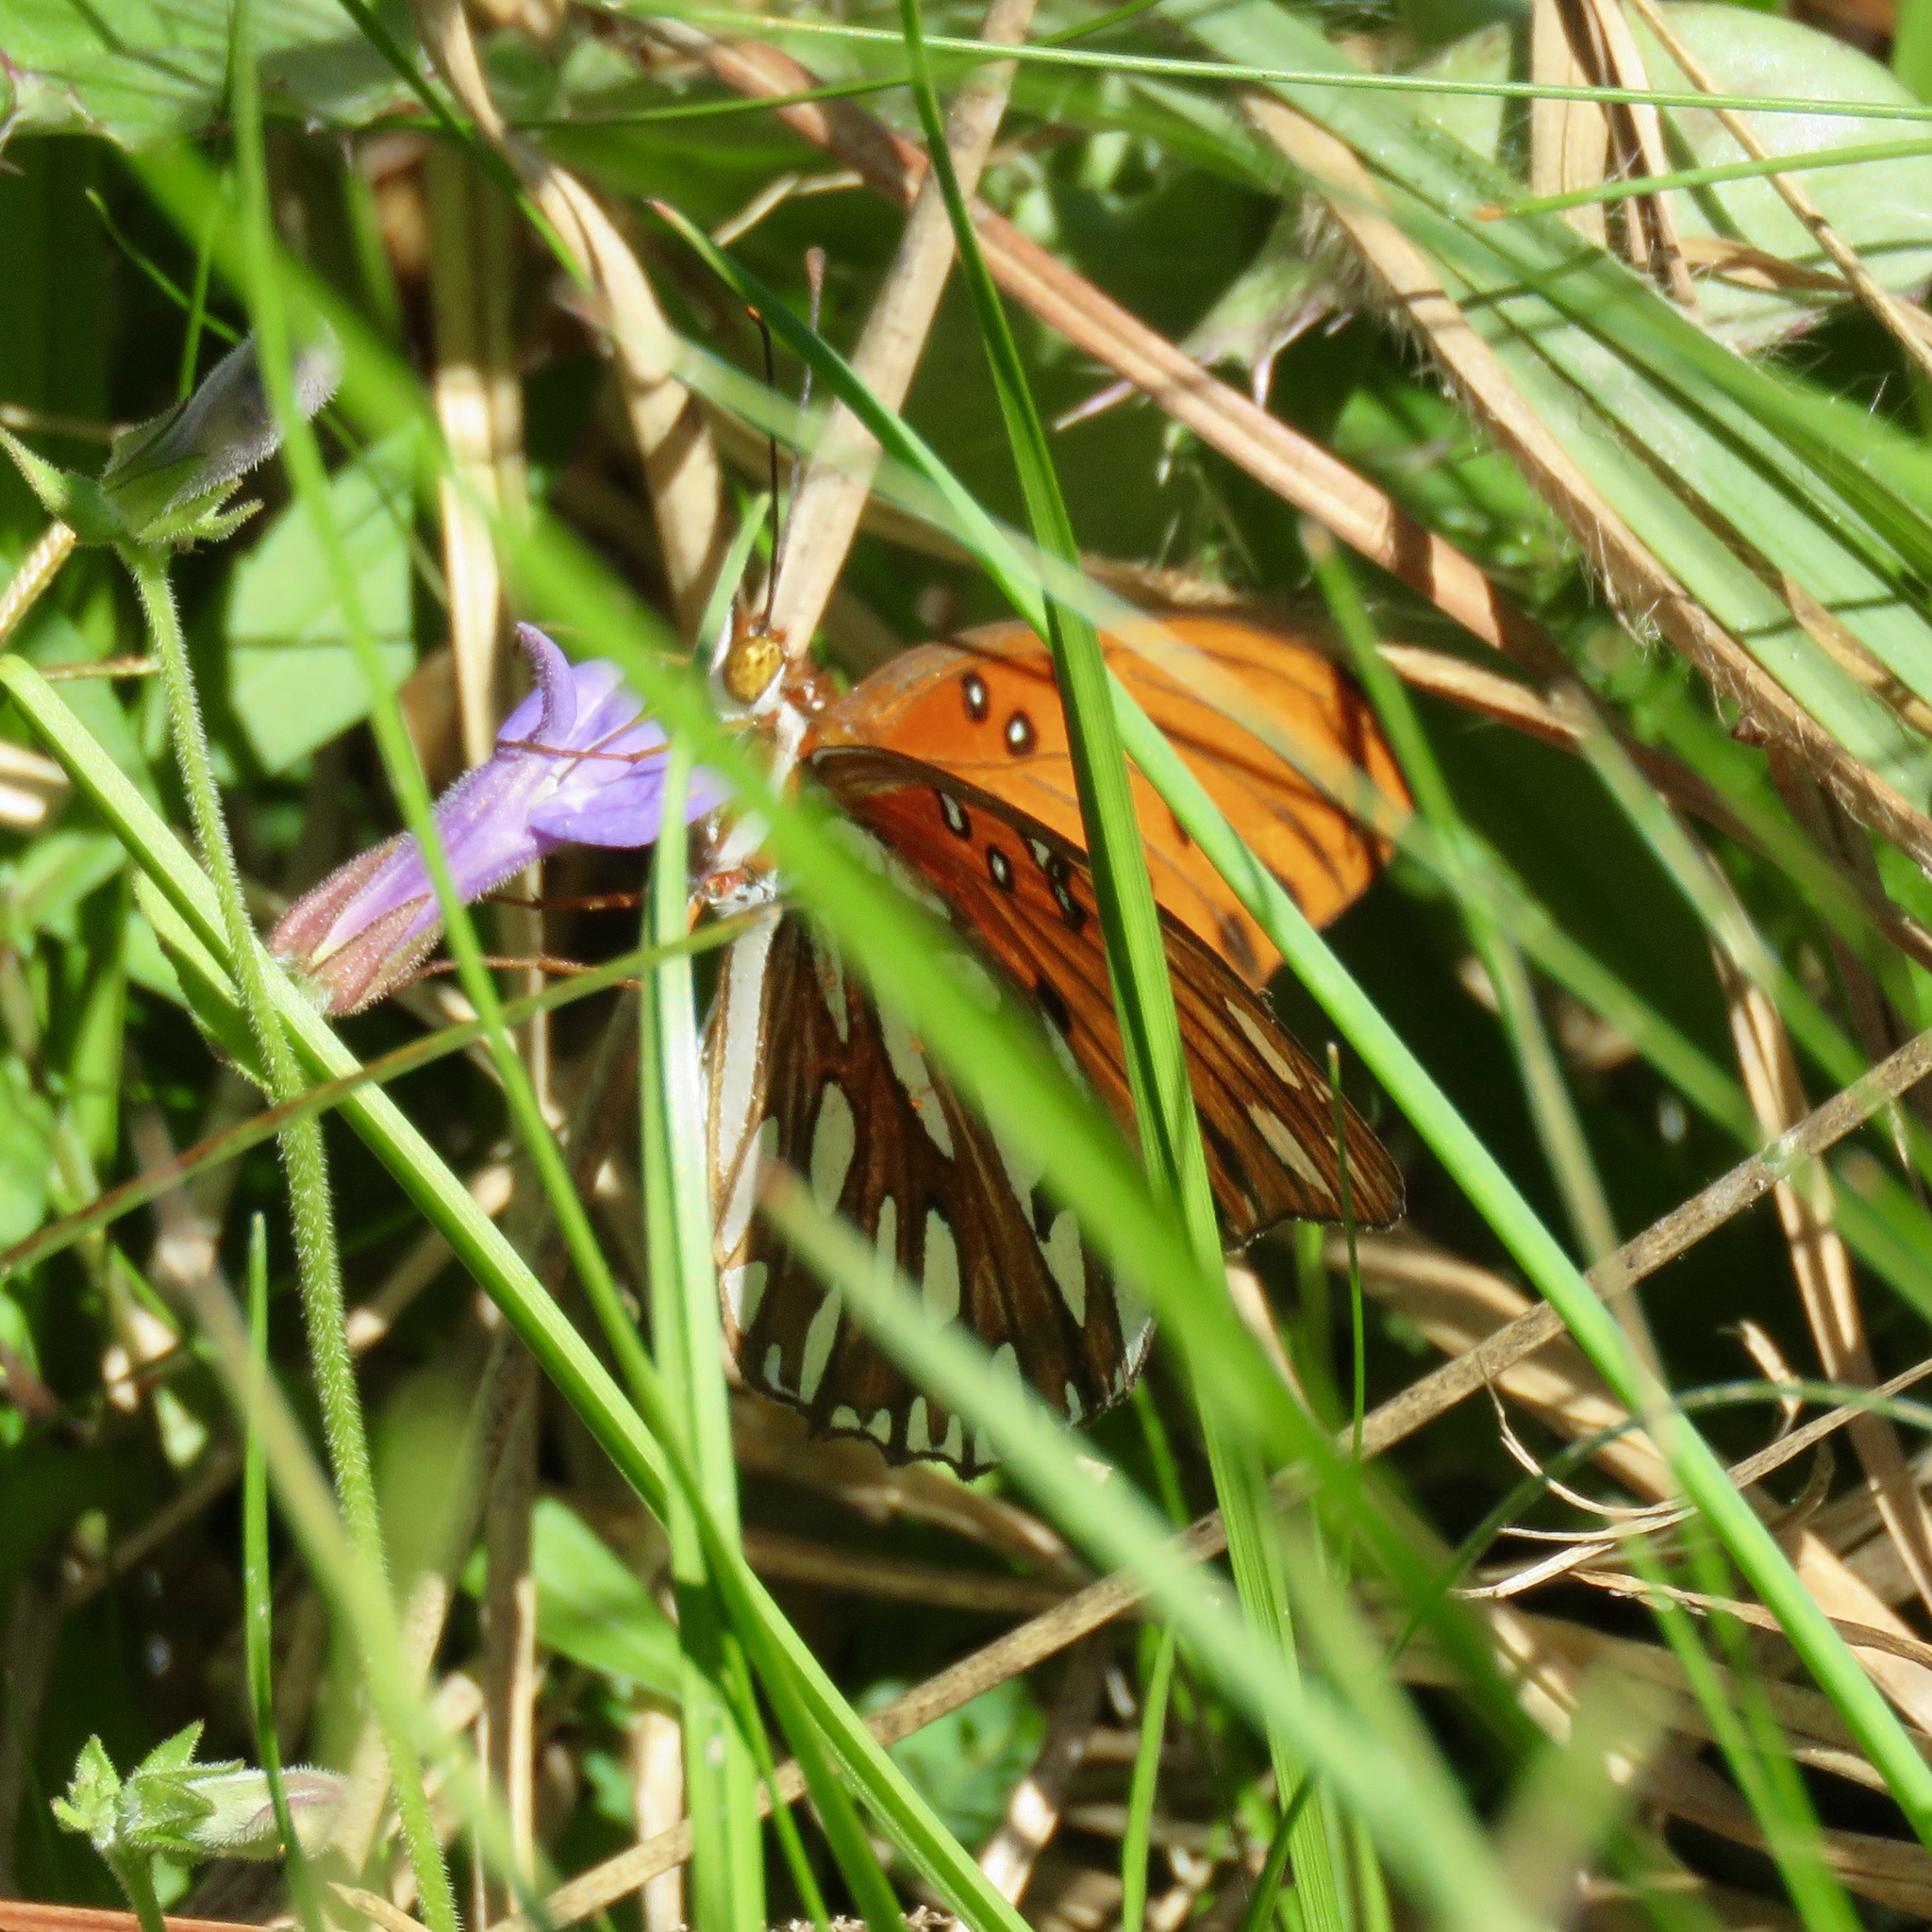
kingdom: Animalia
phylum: Arthropoda
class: Insecta
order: Lepidoptera
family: Nymphalidae
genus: Dione
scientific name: Dione vanillae
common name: Gulf fritillary
